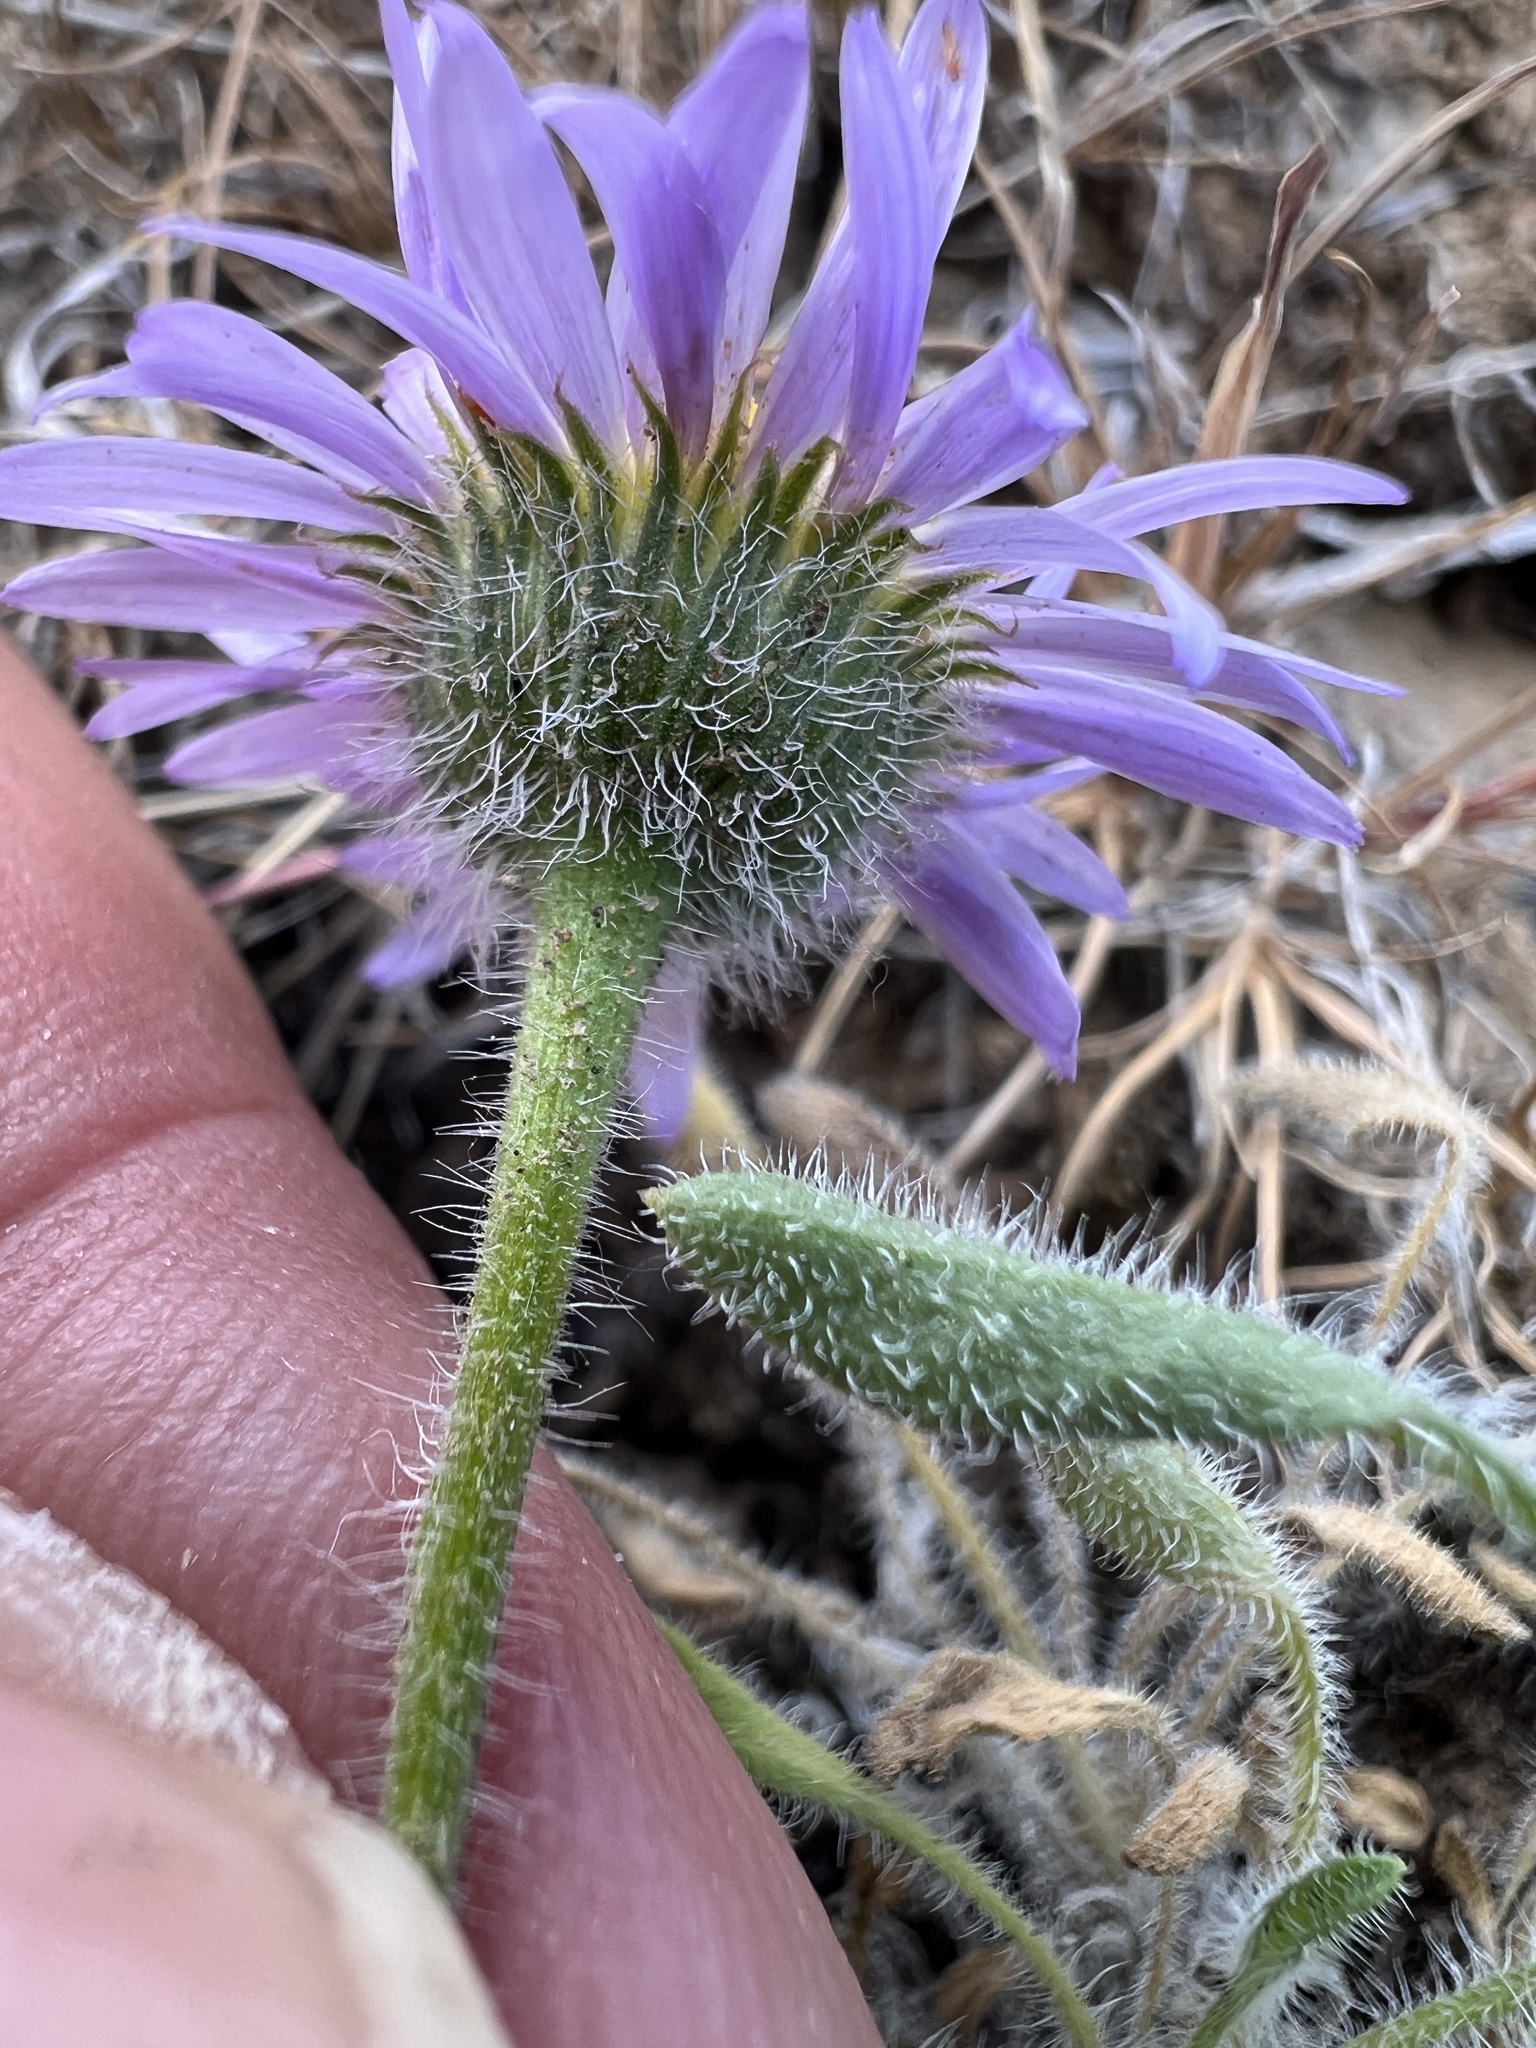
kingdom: Plantae
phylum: Tracheophyta
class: Magnoliopsida
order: Asterales
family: Asteraceae
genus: Erigeron
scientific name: Erigeron poliospermus
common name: Cushion fleabane
